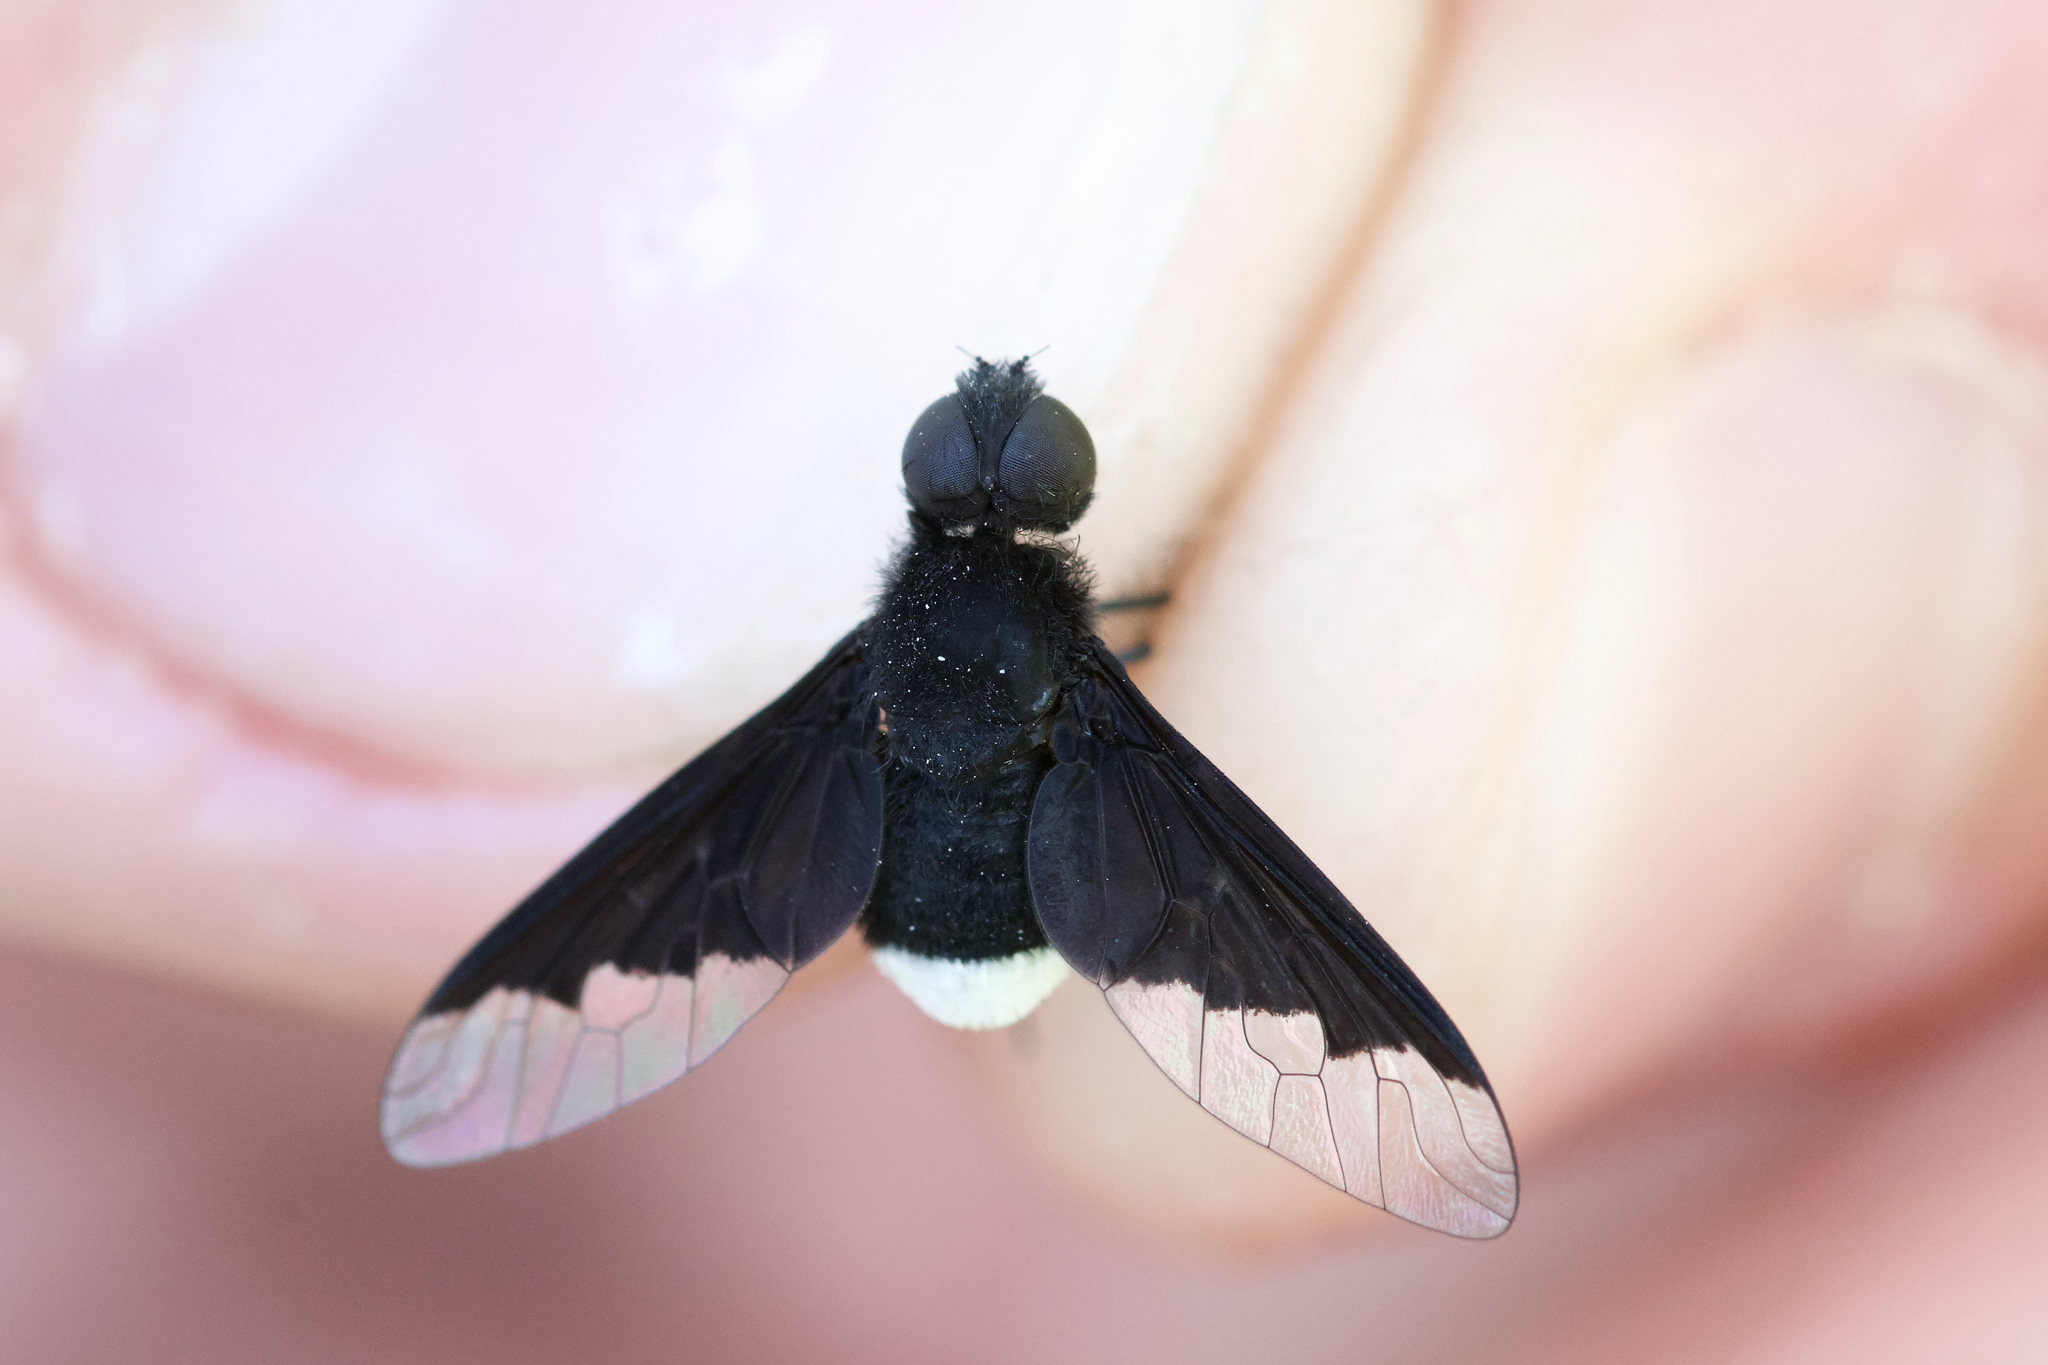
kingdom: Animalia
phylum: Arthropoda
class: Insecta
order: Diptera
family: Bombyliidae
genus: Anthrax
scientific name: Anthrax analis
